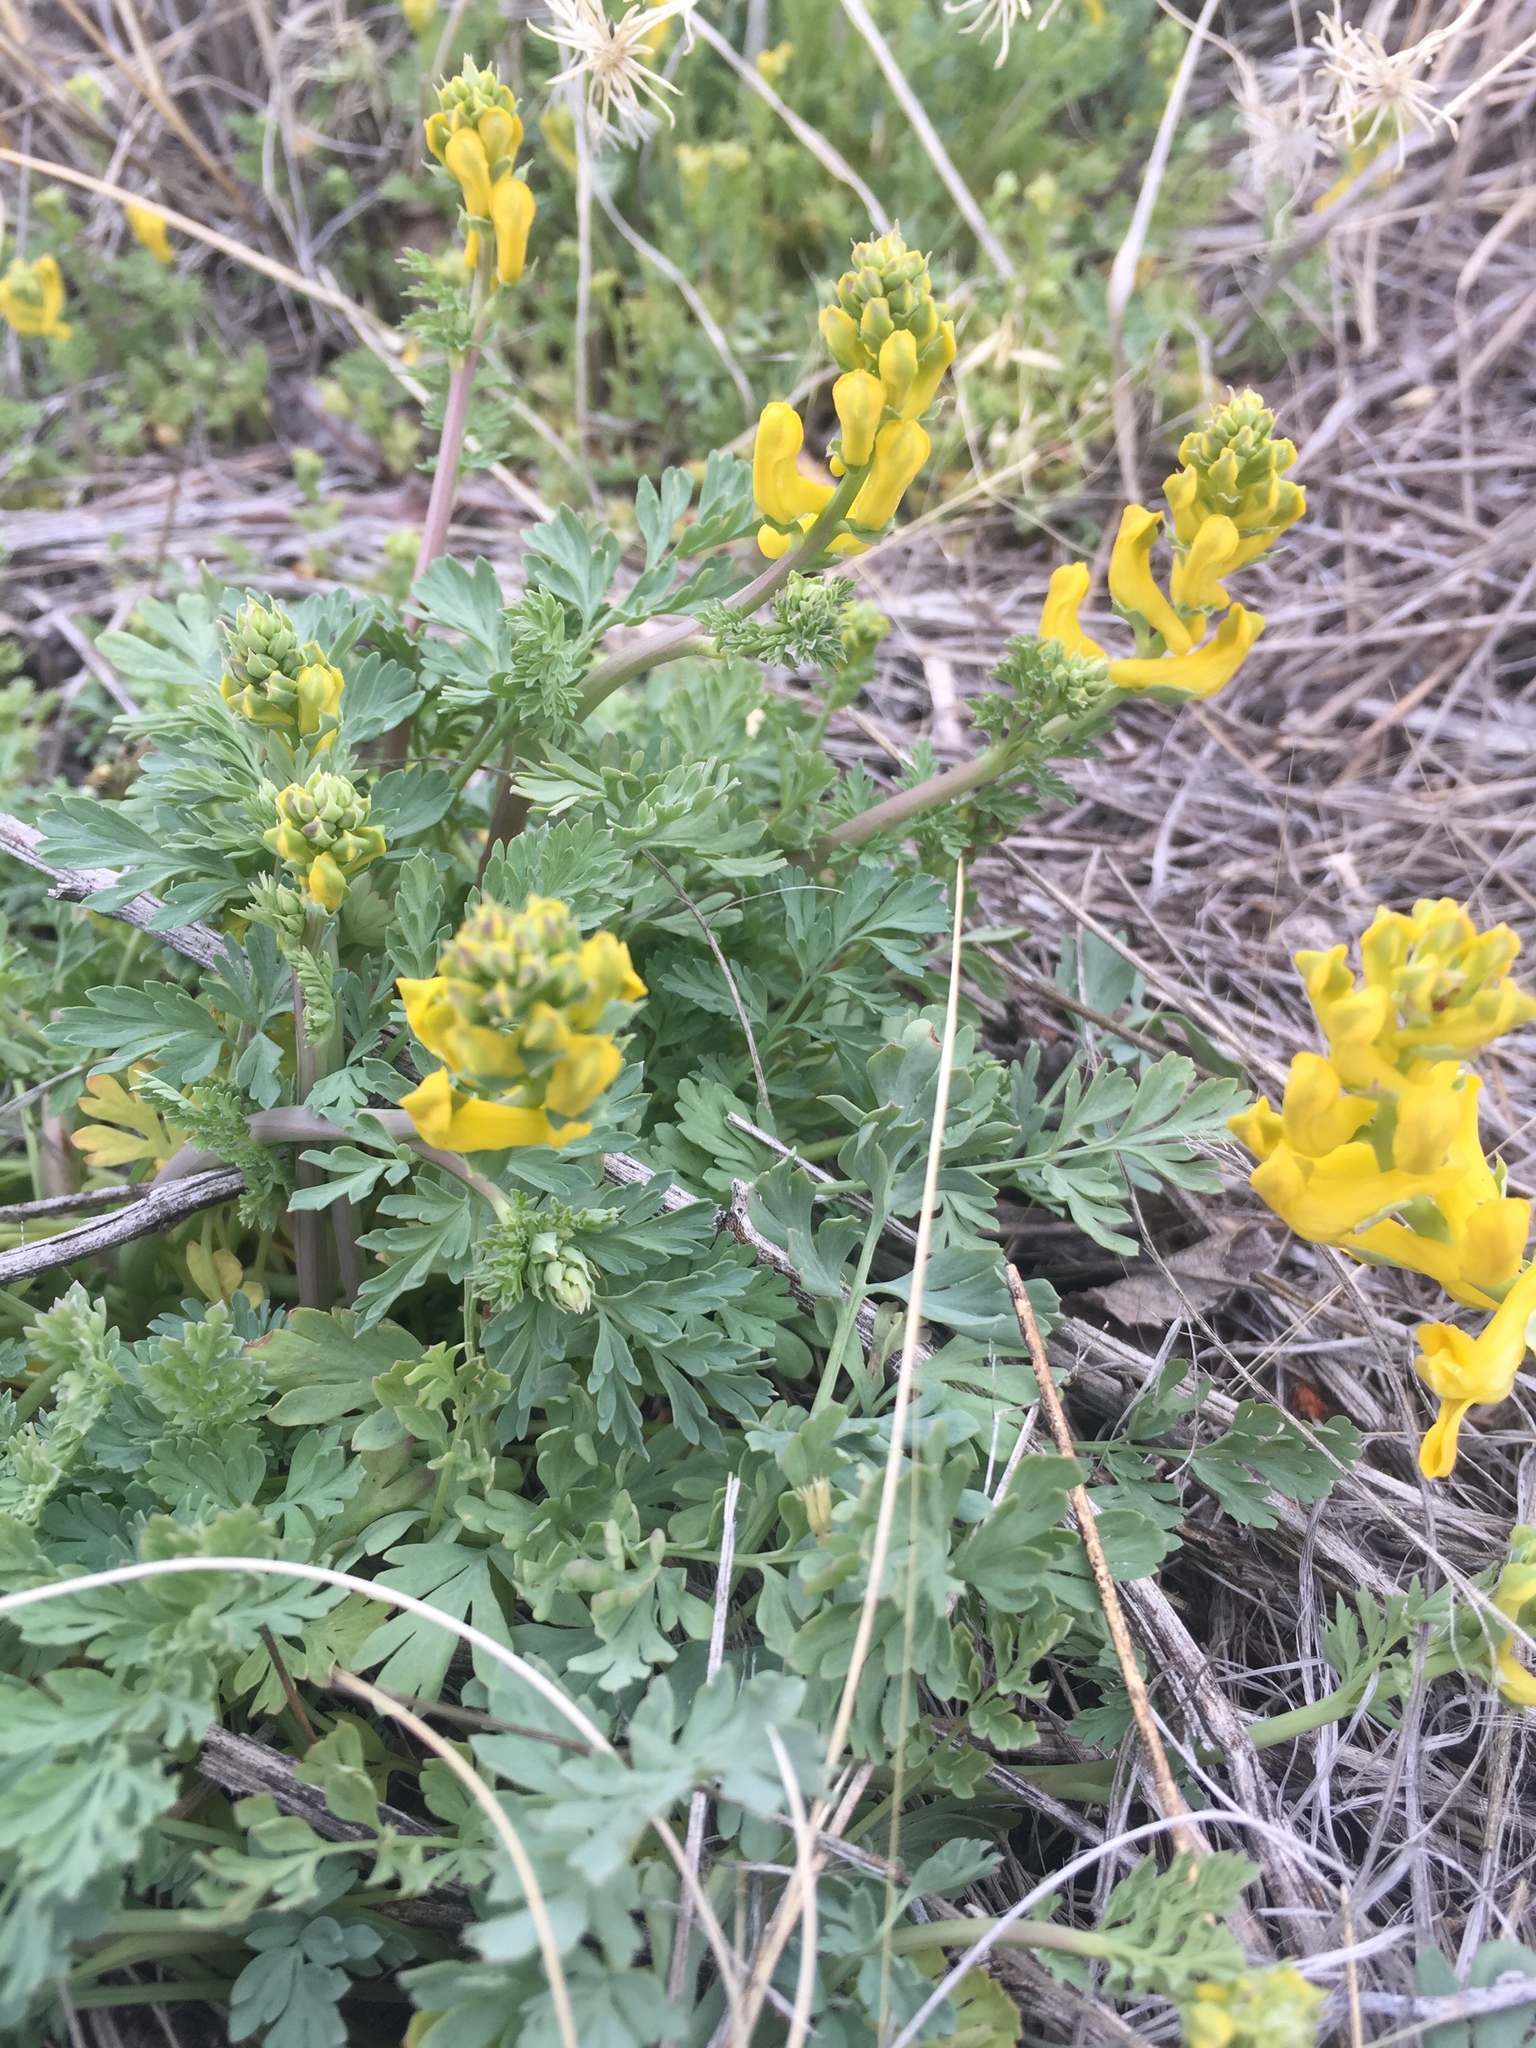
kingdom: Plantae
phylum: Tracheophyta
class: Magnoliopsida
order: Ranunculales
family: Papaveraceae
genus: Corydalis
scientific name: Corydalis aurea
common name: Golden corydalis
